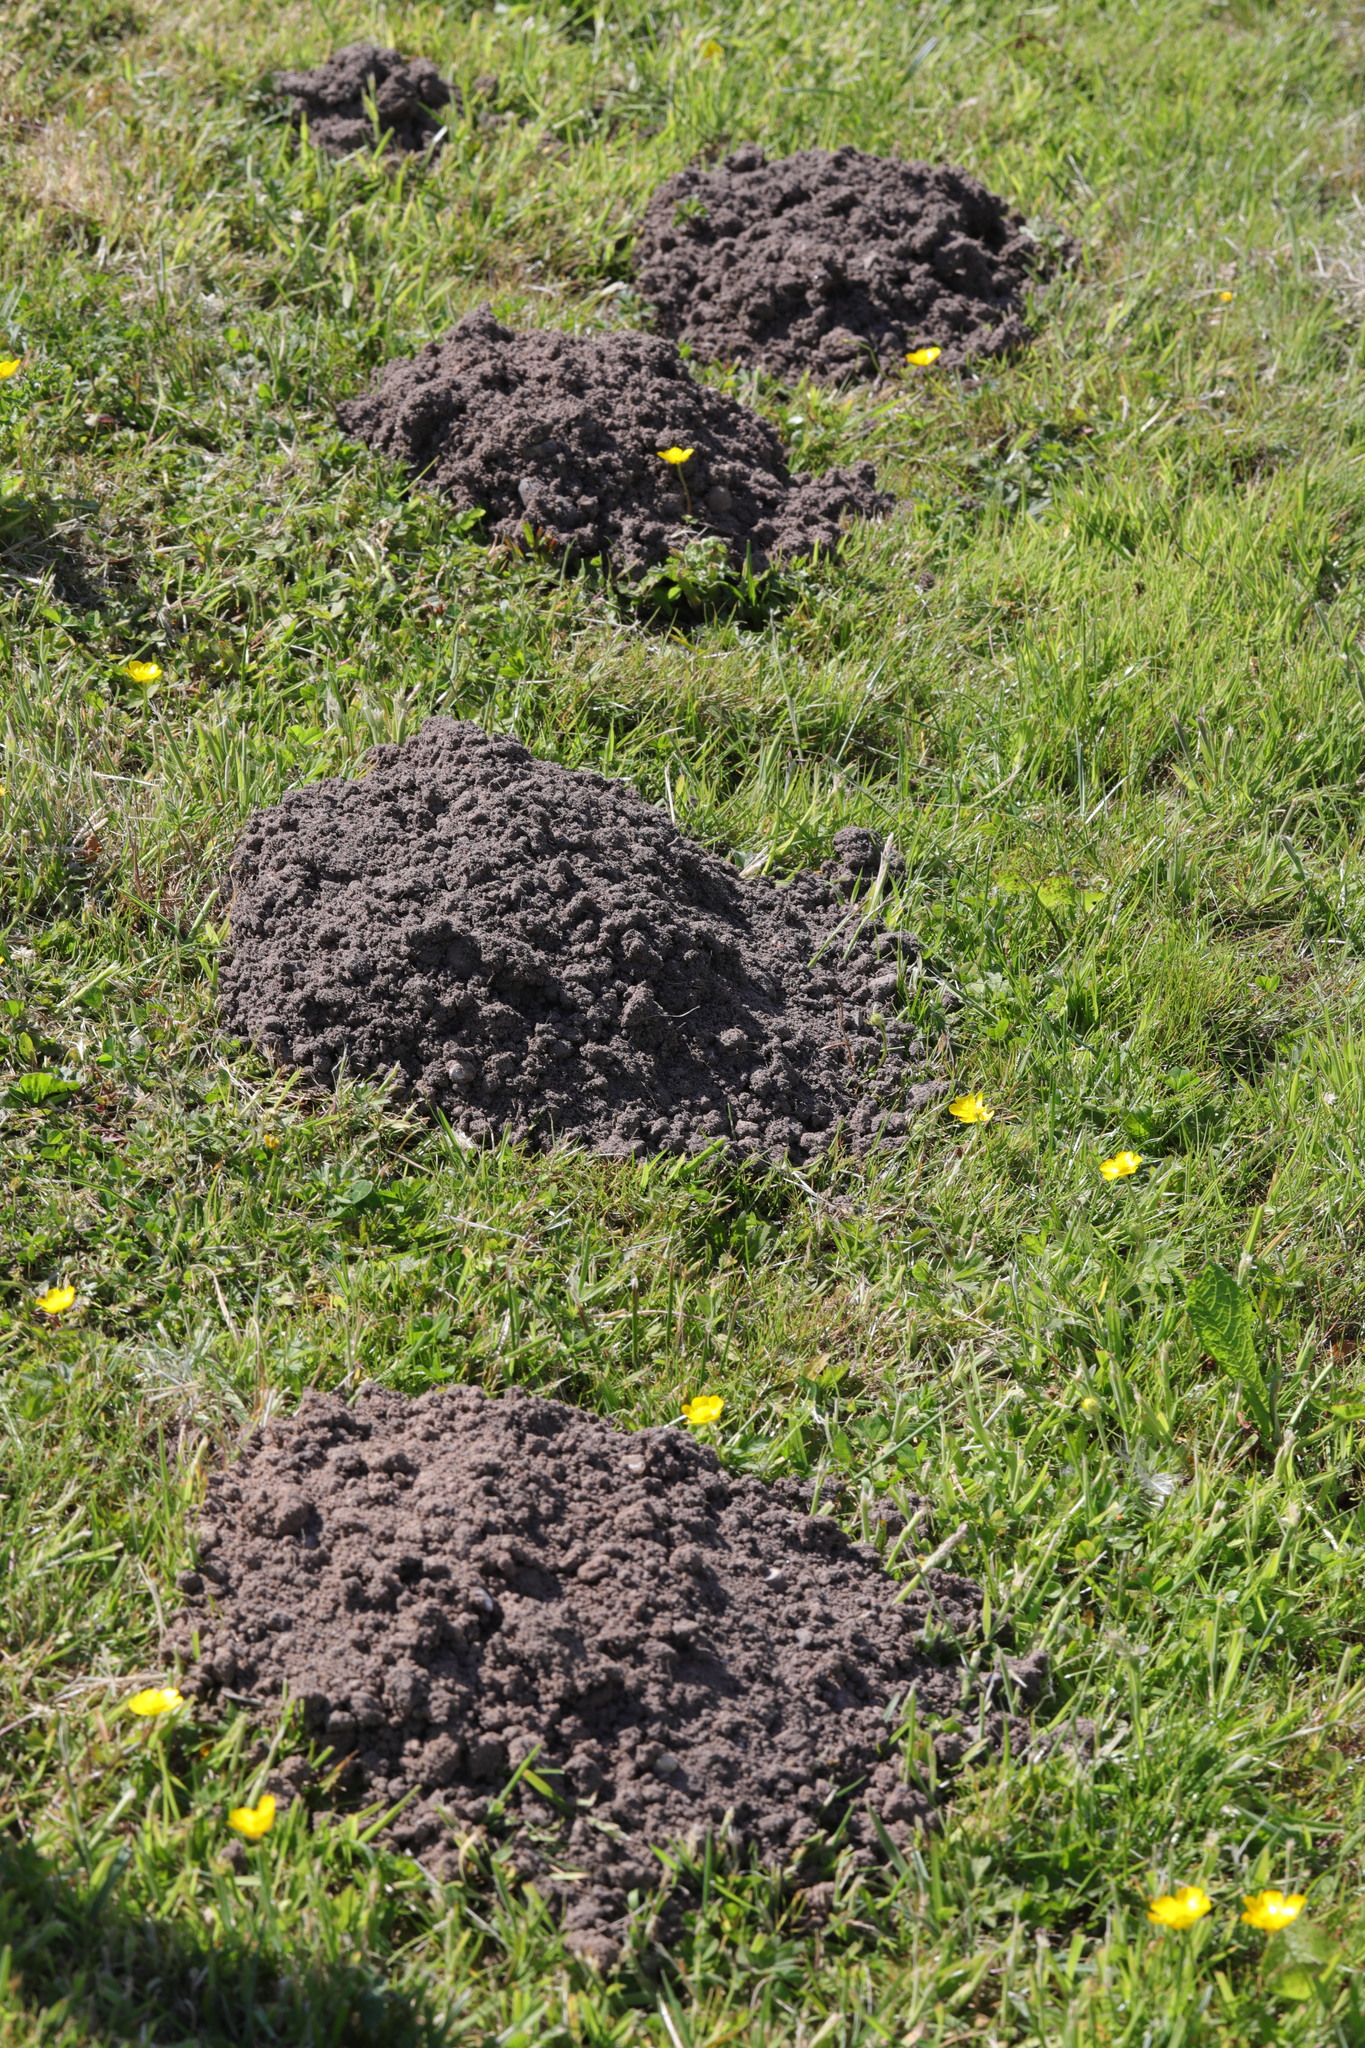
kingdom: Animalia
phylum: Chordata
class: Mammalia
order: Soricomorpha
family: Talpidae
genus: Talpa
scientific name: Talpa europaea
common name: European mole
